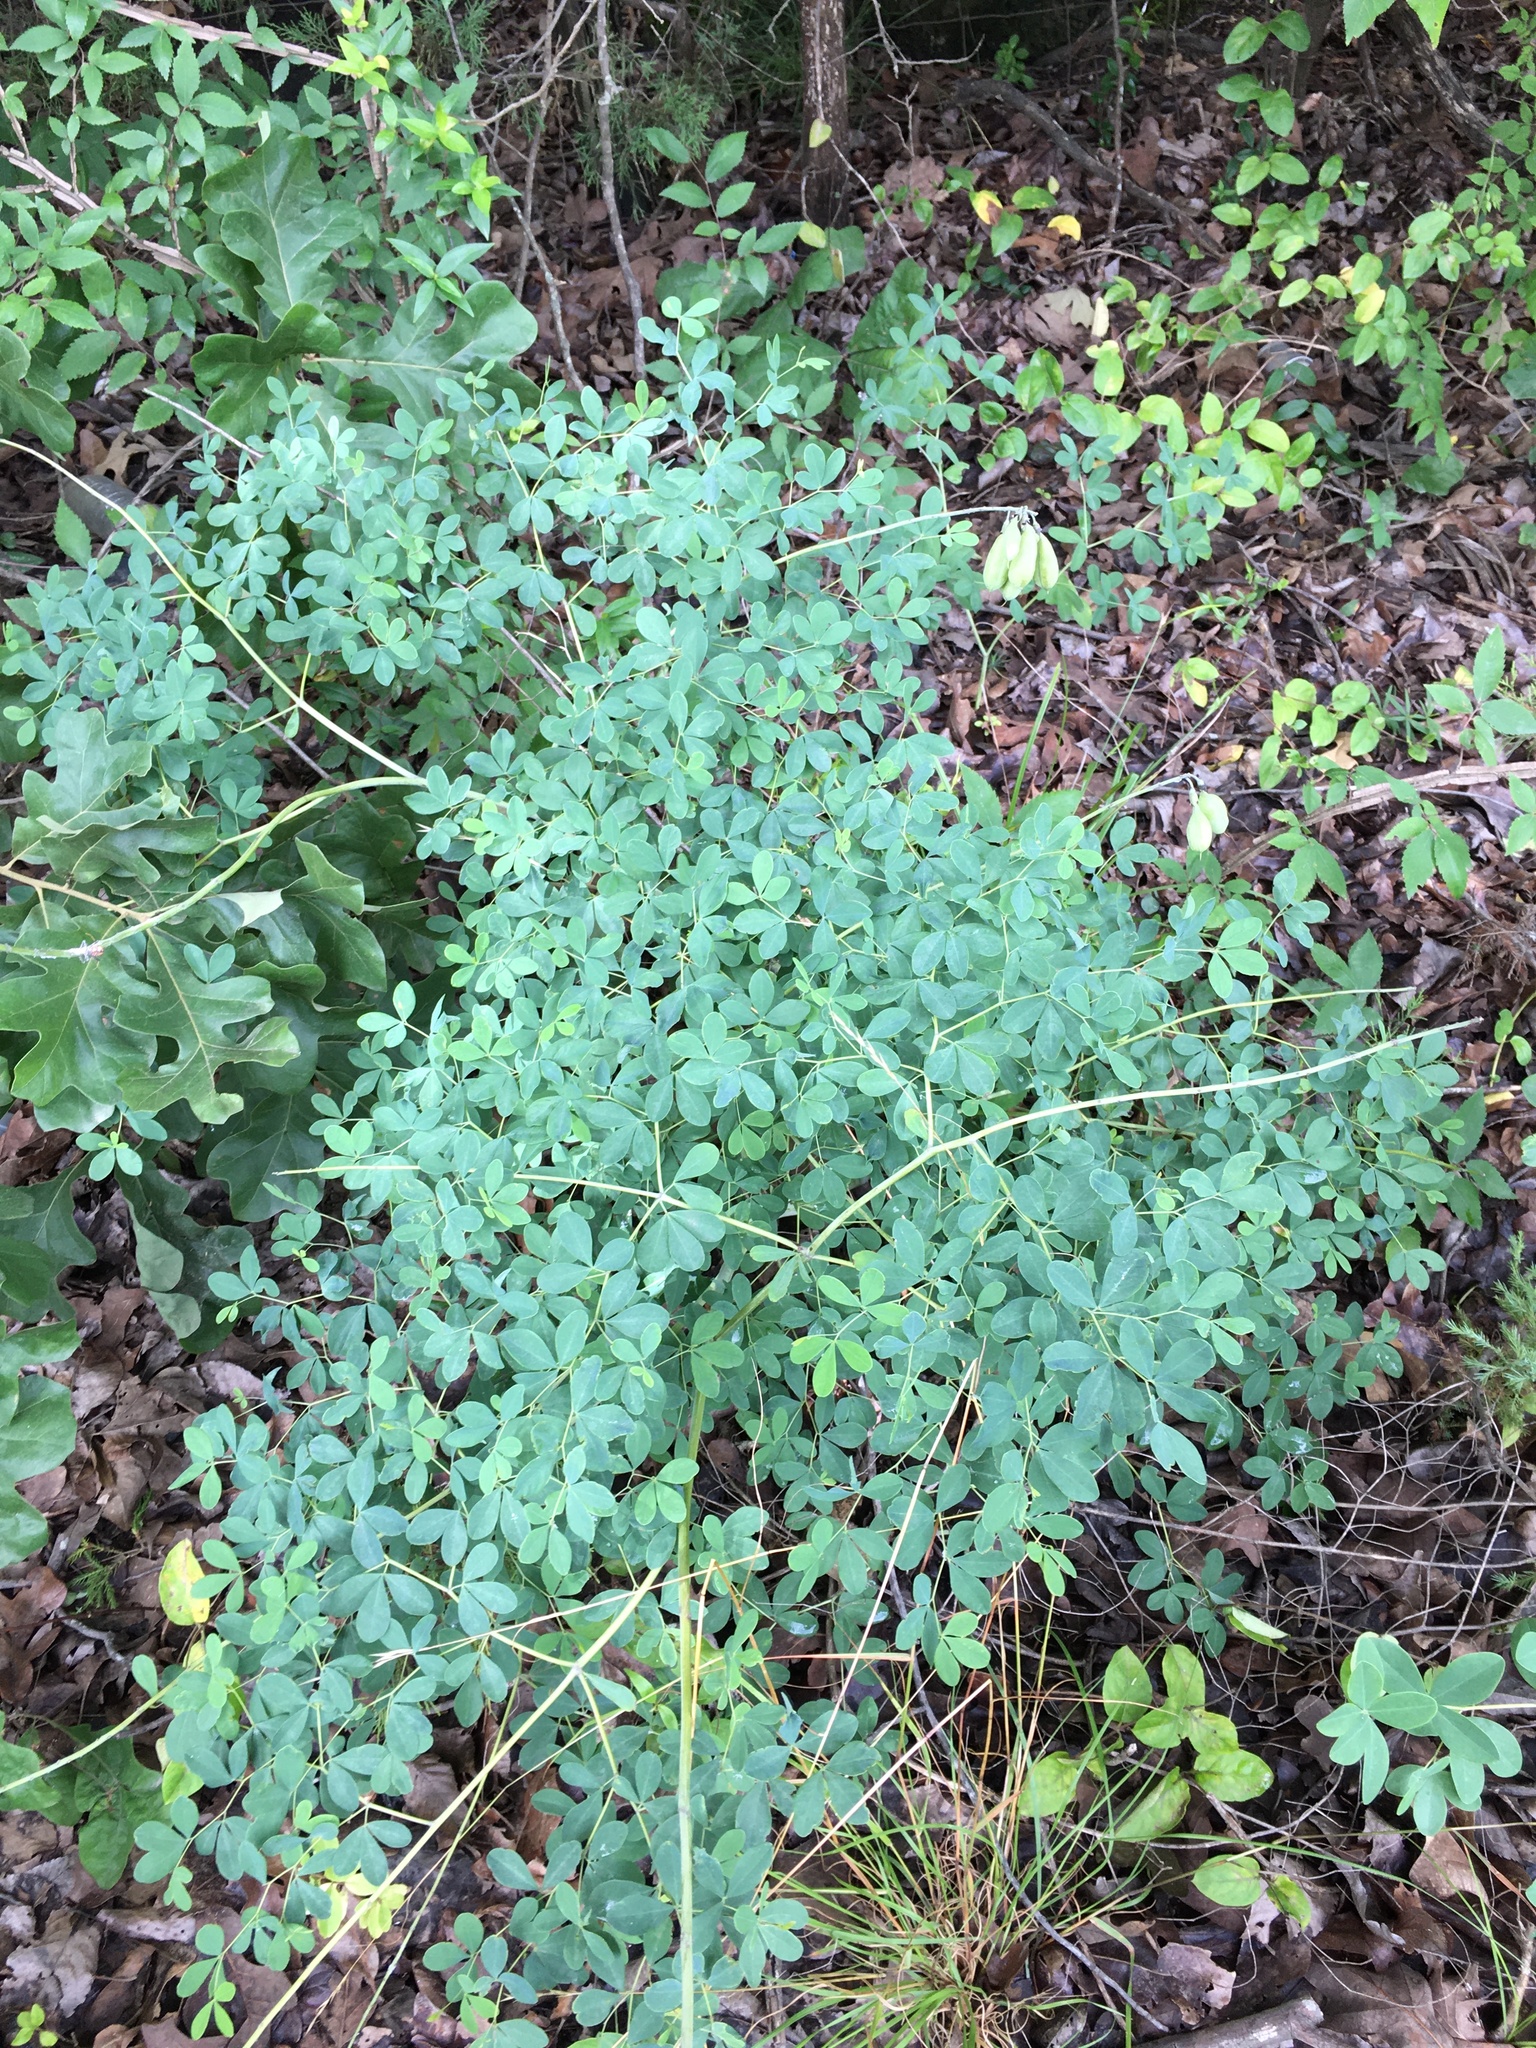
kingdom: Plantae
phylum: Tracheophyta
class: Magnoliopsida
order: Fabales
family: Fabaceae
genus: Baptisia
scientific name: Baptisia alba
